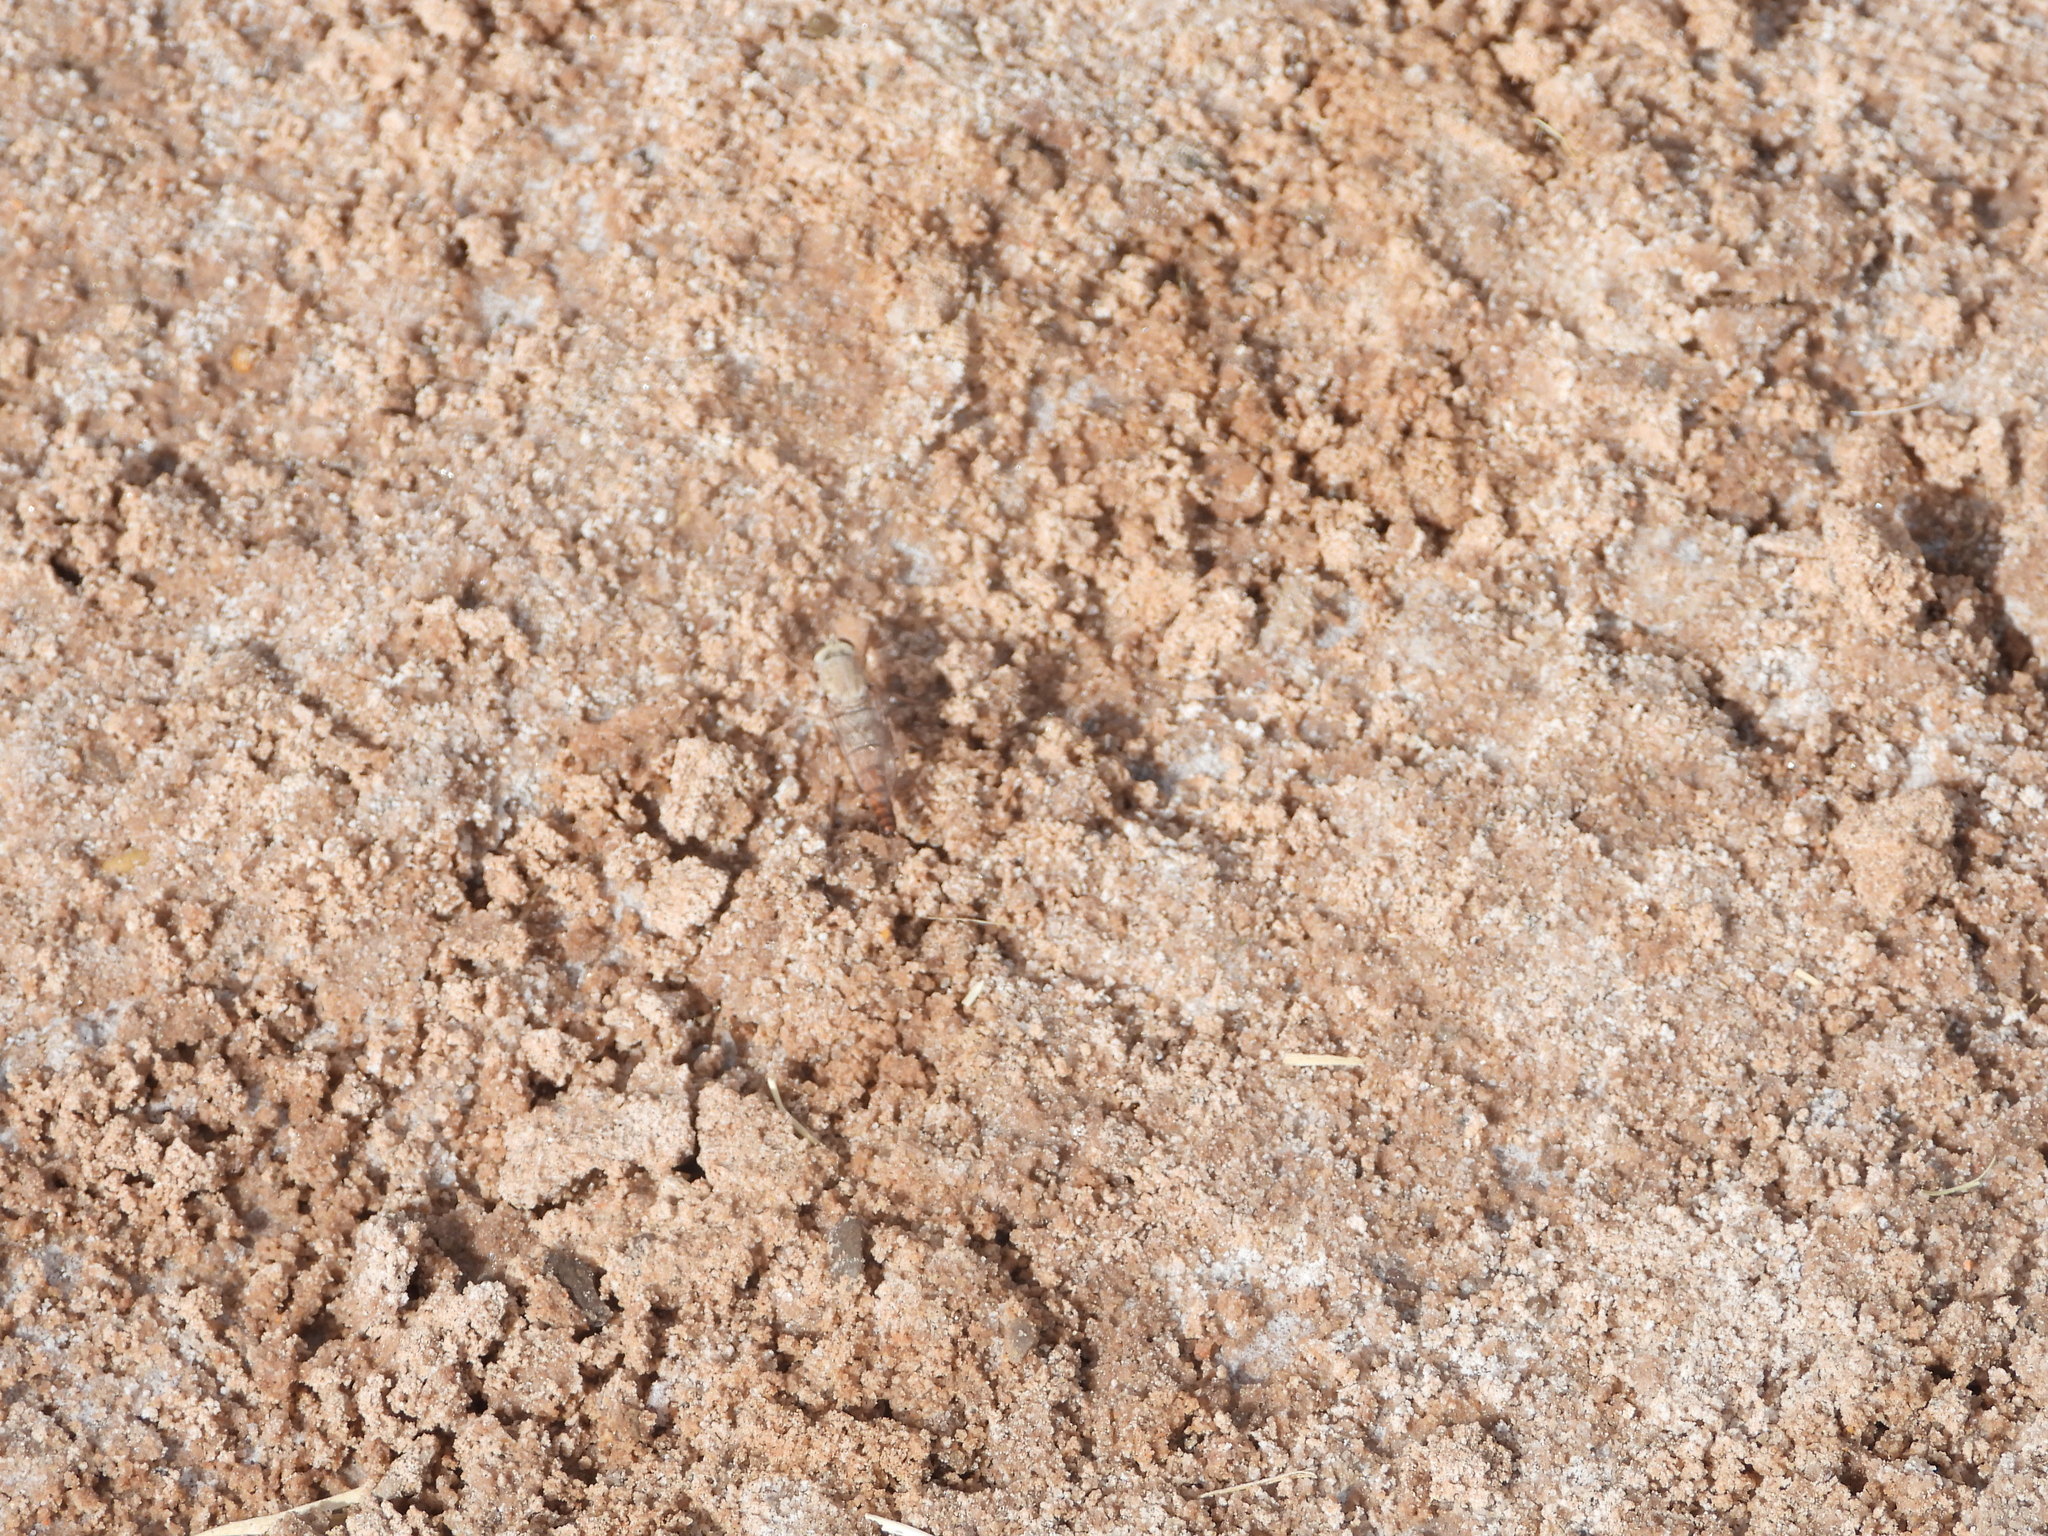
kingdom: Animalia
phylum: Arthropoda
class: Insecta
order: Diptera
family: Therevidae
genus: Lysilinga
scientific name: Lysilinga occipitalis
